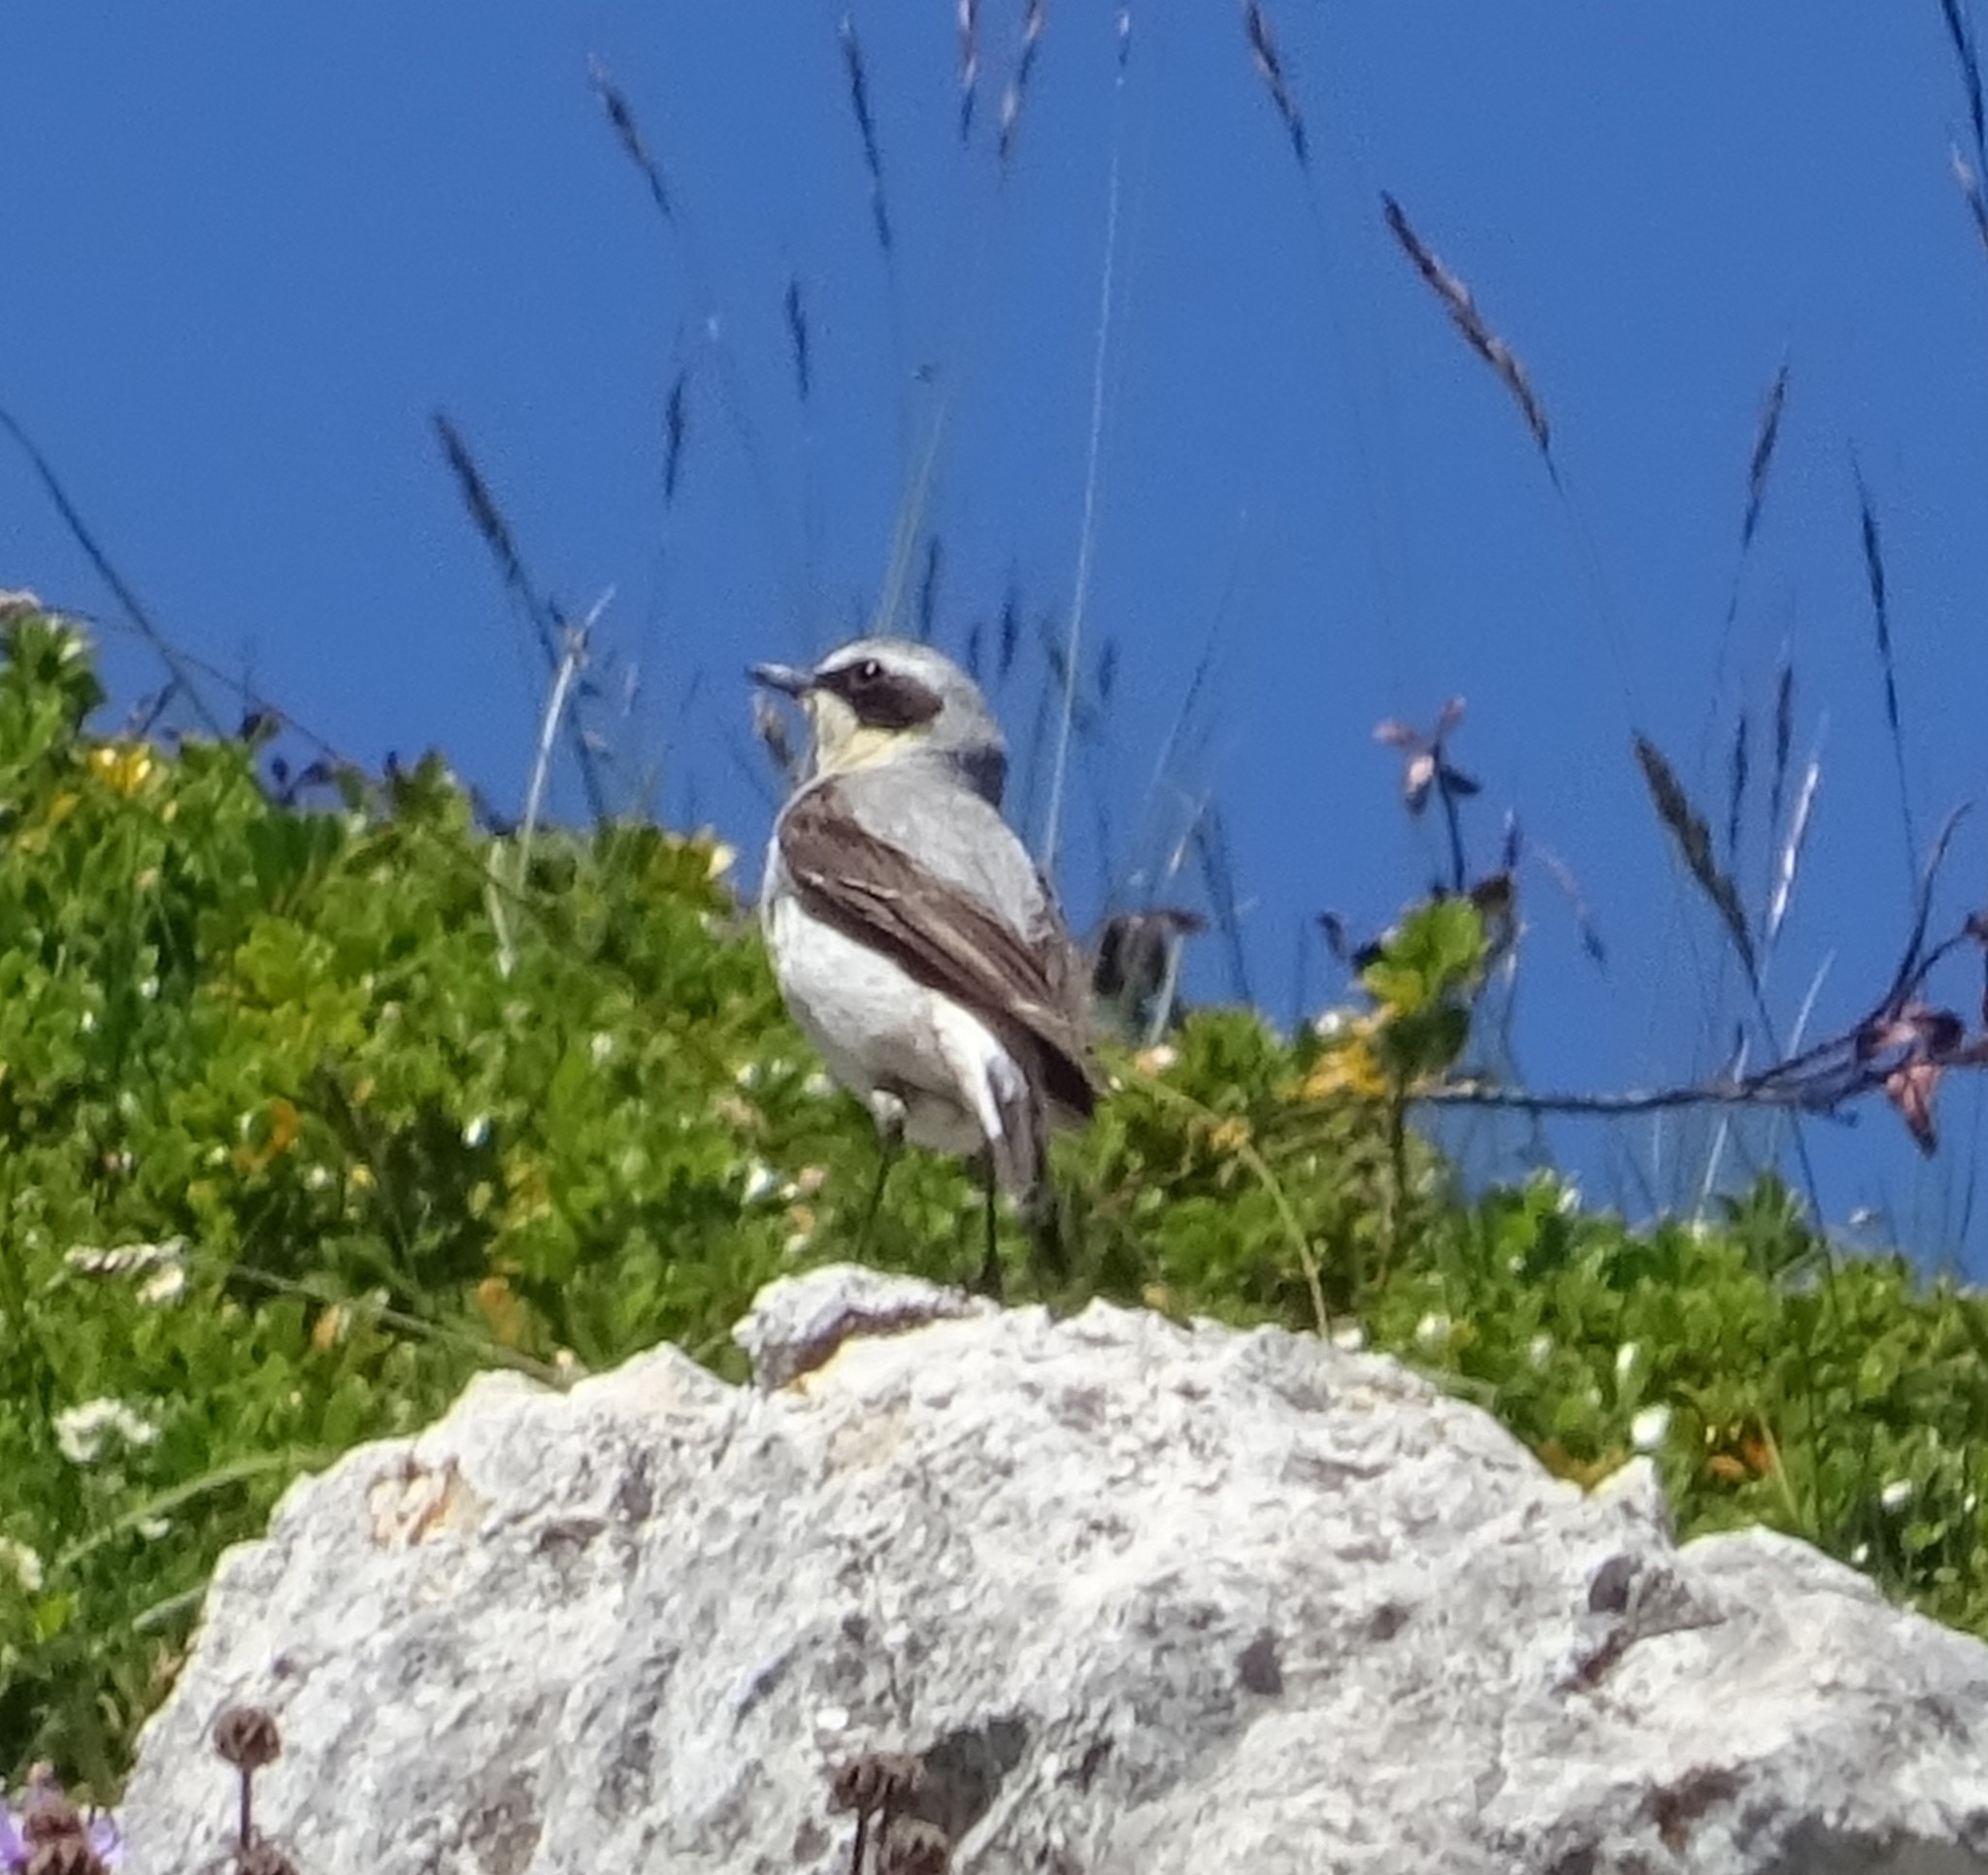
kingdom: Animalia
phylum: Chordata
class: Aves
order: Passeriformes
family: Muscicapidae
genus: Oenanthe
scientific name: Oenanthe oenanthe
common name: Northern wheatear
